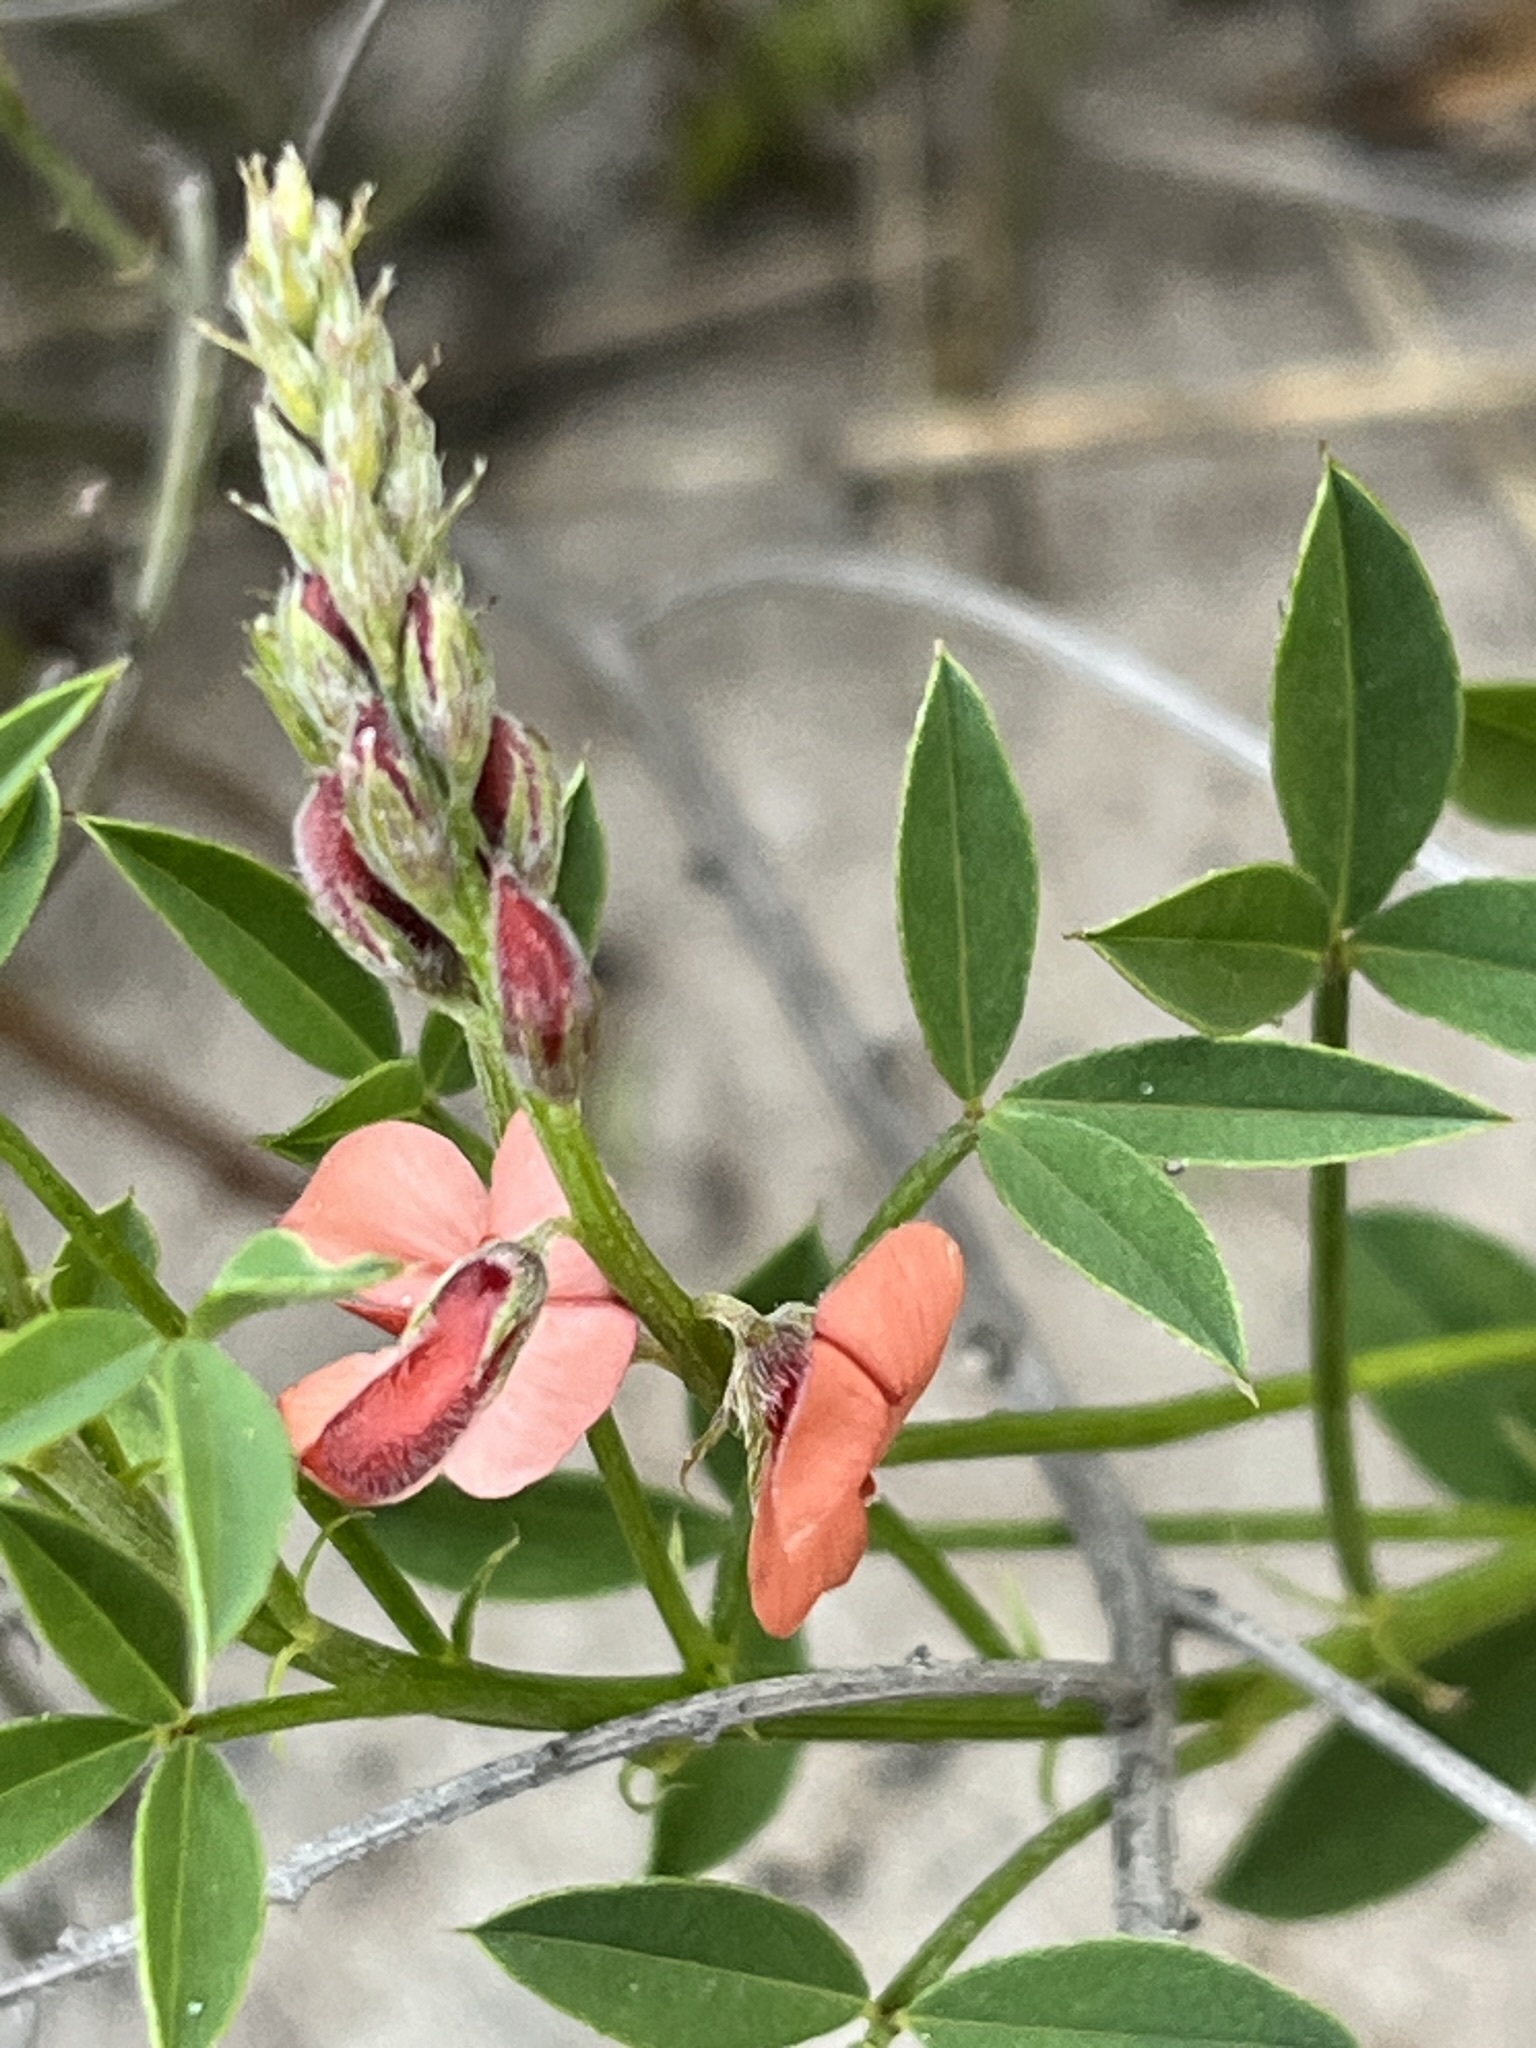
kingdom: Plantae
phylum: Tracheophyta
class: Magnoliopsida
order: Fabales
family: Fabaceae
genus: Indigofera
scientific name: Indigofera heterophylla
